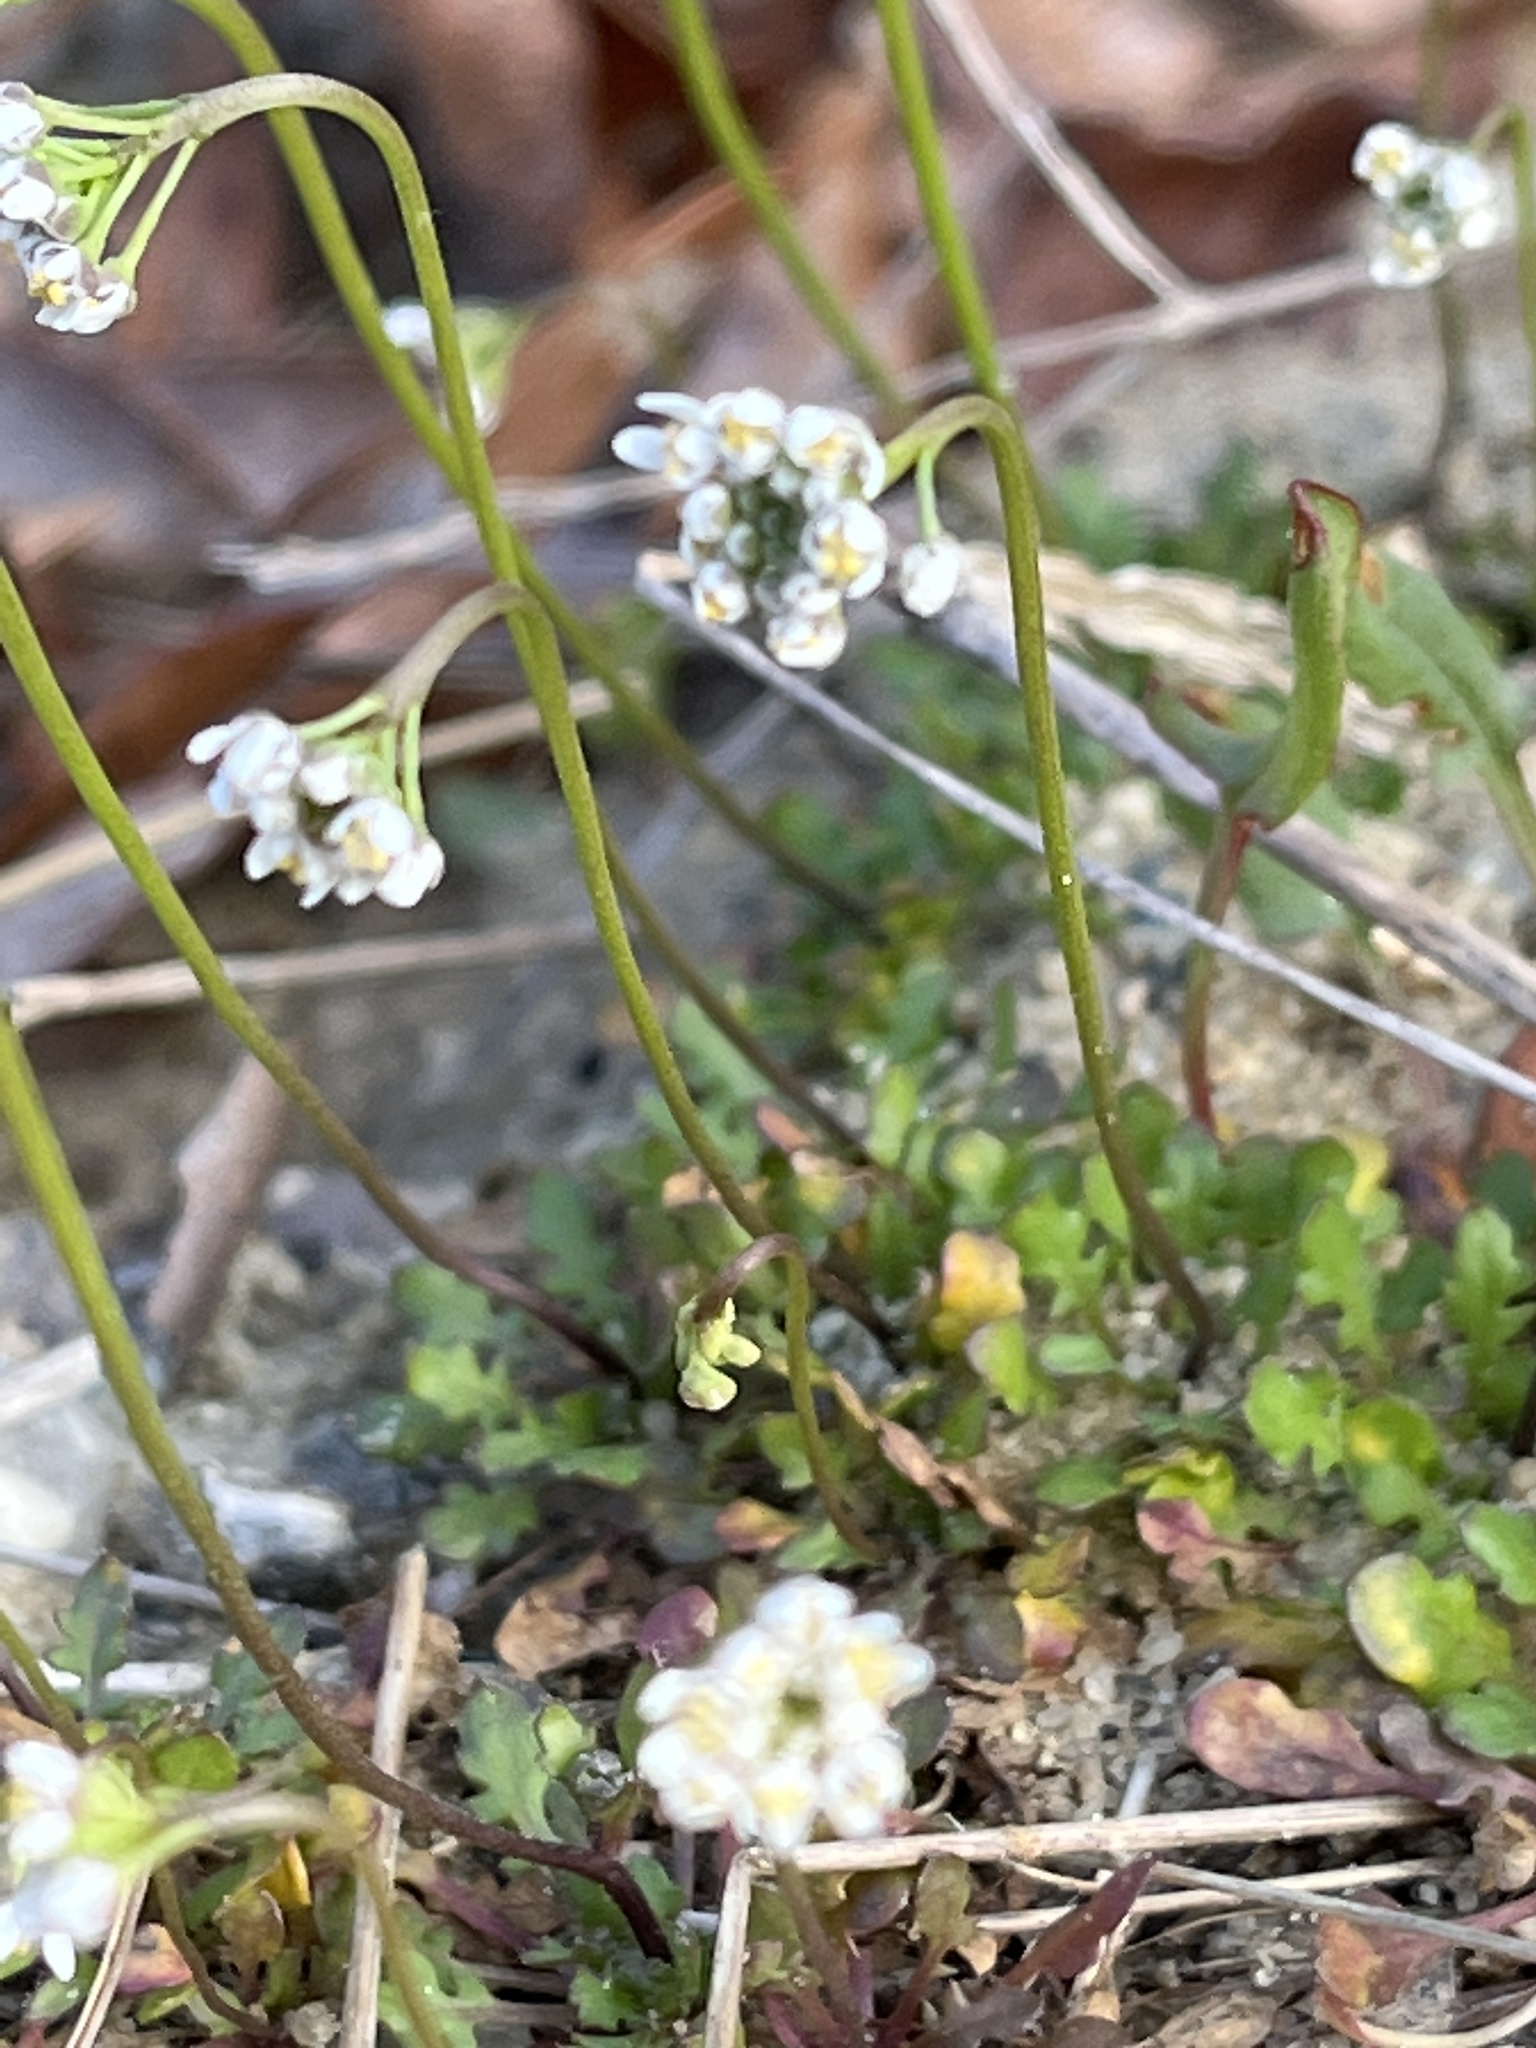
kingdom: Plantae
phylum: Tracheophyta
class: Magnoliopsida
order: Brassicales
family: Brassicaceae
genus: Teesdalia
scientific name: Teesdalia nudicaulis
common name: Shepherd's cress
